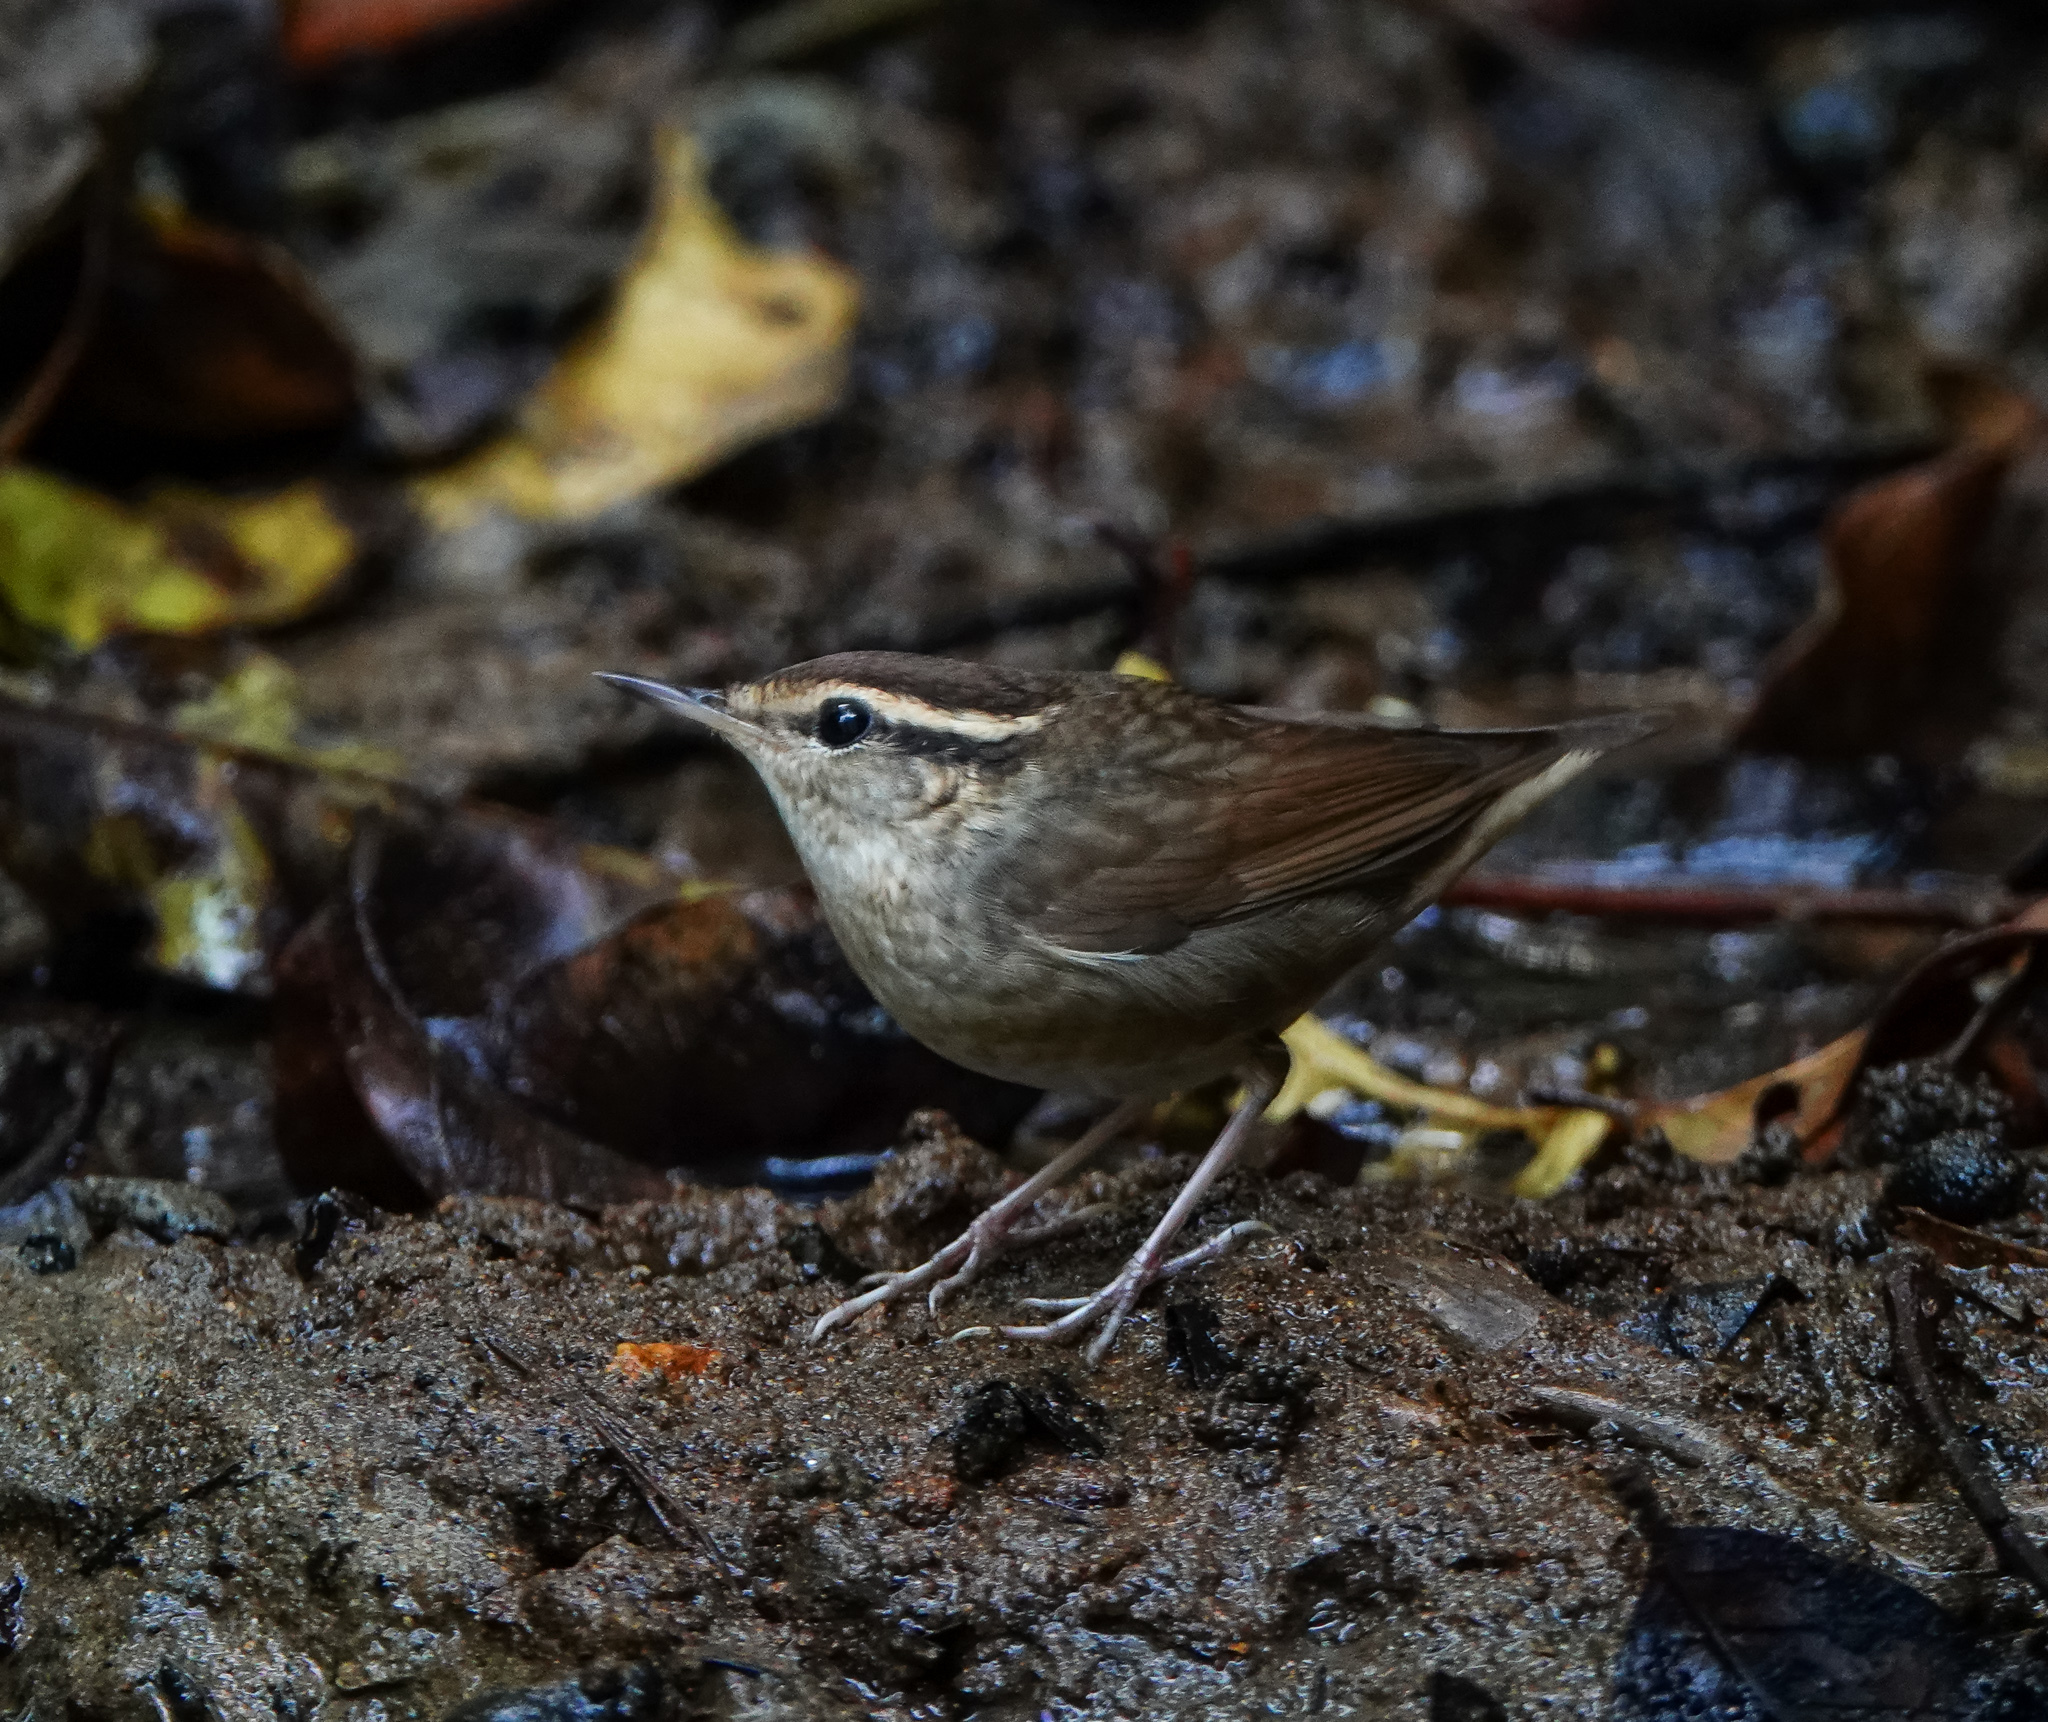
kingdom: Animalia
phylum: Chordata
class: Aves
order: Passeriformes
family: Cettiidae
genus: Urosphena
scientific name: Urosphena squameiceps
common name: Asian stubtail
